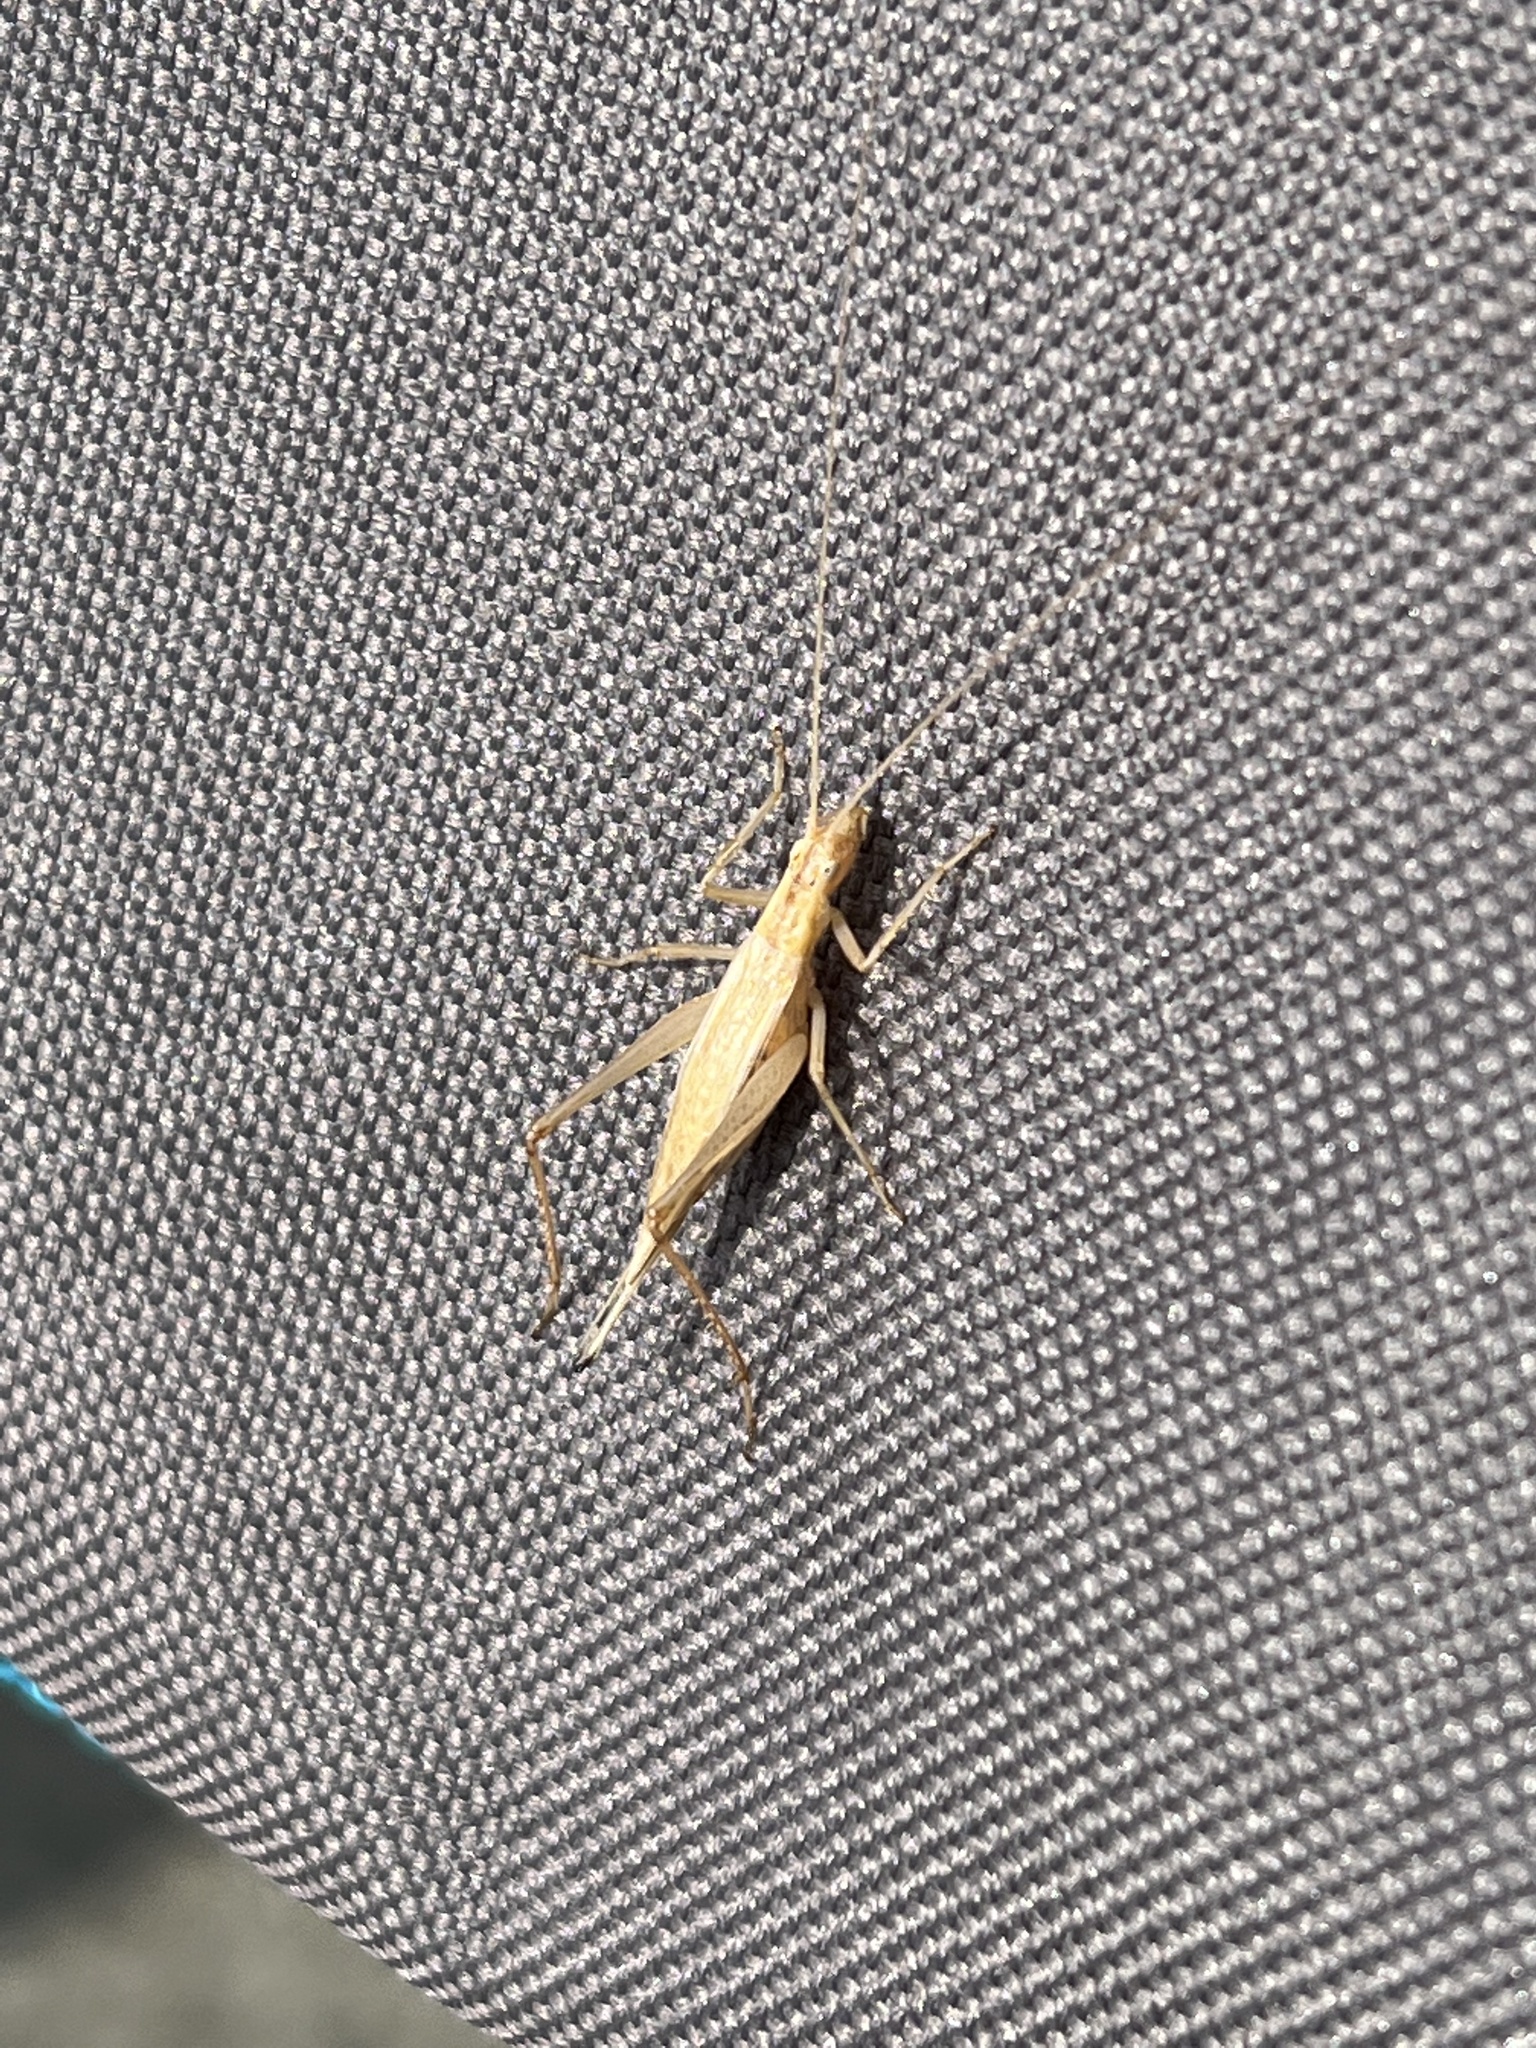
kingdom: Animalia
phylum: Arthropoda
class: Insecta
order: Orthoptera
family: Gryllidae
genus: Oecanthus
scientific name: Oecanthus pellucens
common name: Tree-cricket
